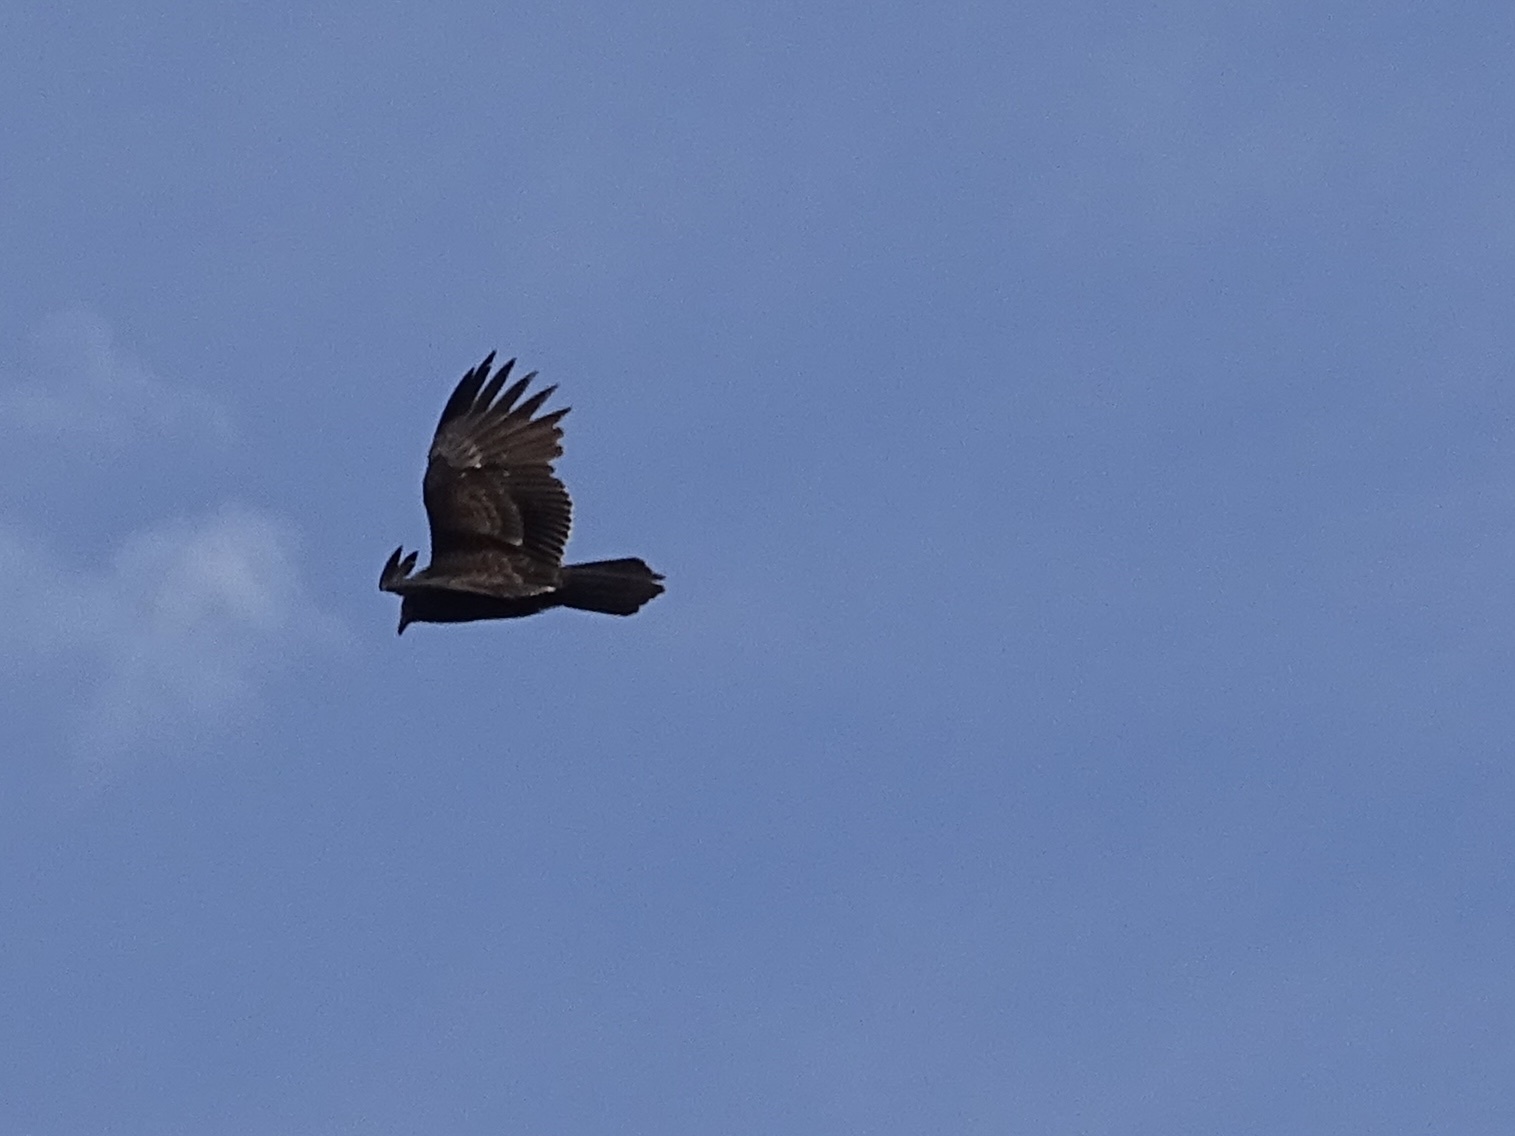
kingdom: Animalia
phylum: Chordata
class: Aves
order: Accipitriformes
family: Cathartidae
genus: Cathartes
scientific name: Cathartes aura
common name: Turkey vulture
